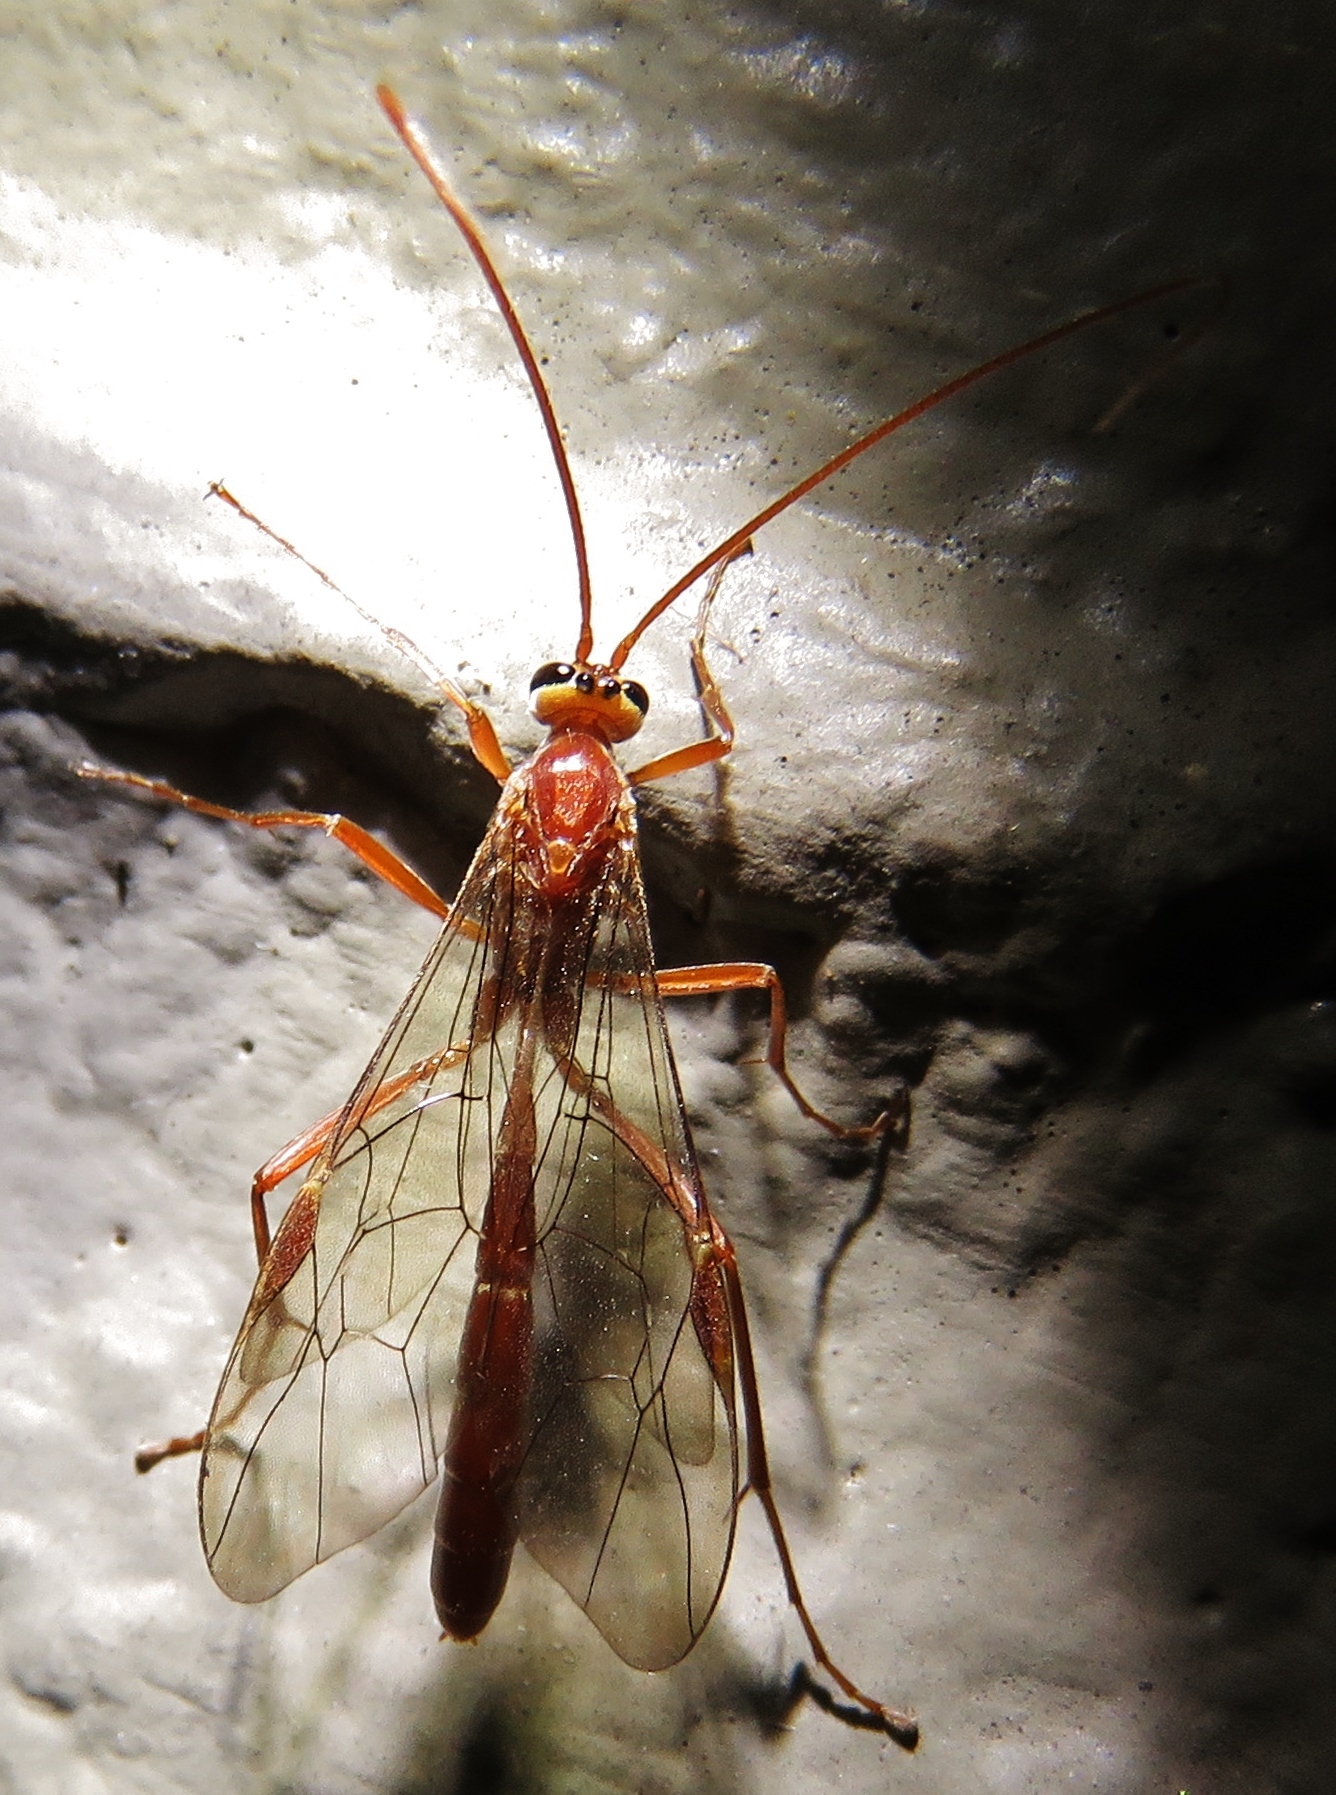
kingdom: Animalia
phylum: Arthropoda
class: Insecta
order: Hymenoptera
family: Ichneumonidae
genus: Ophion
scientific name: Ophion
